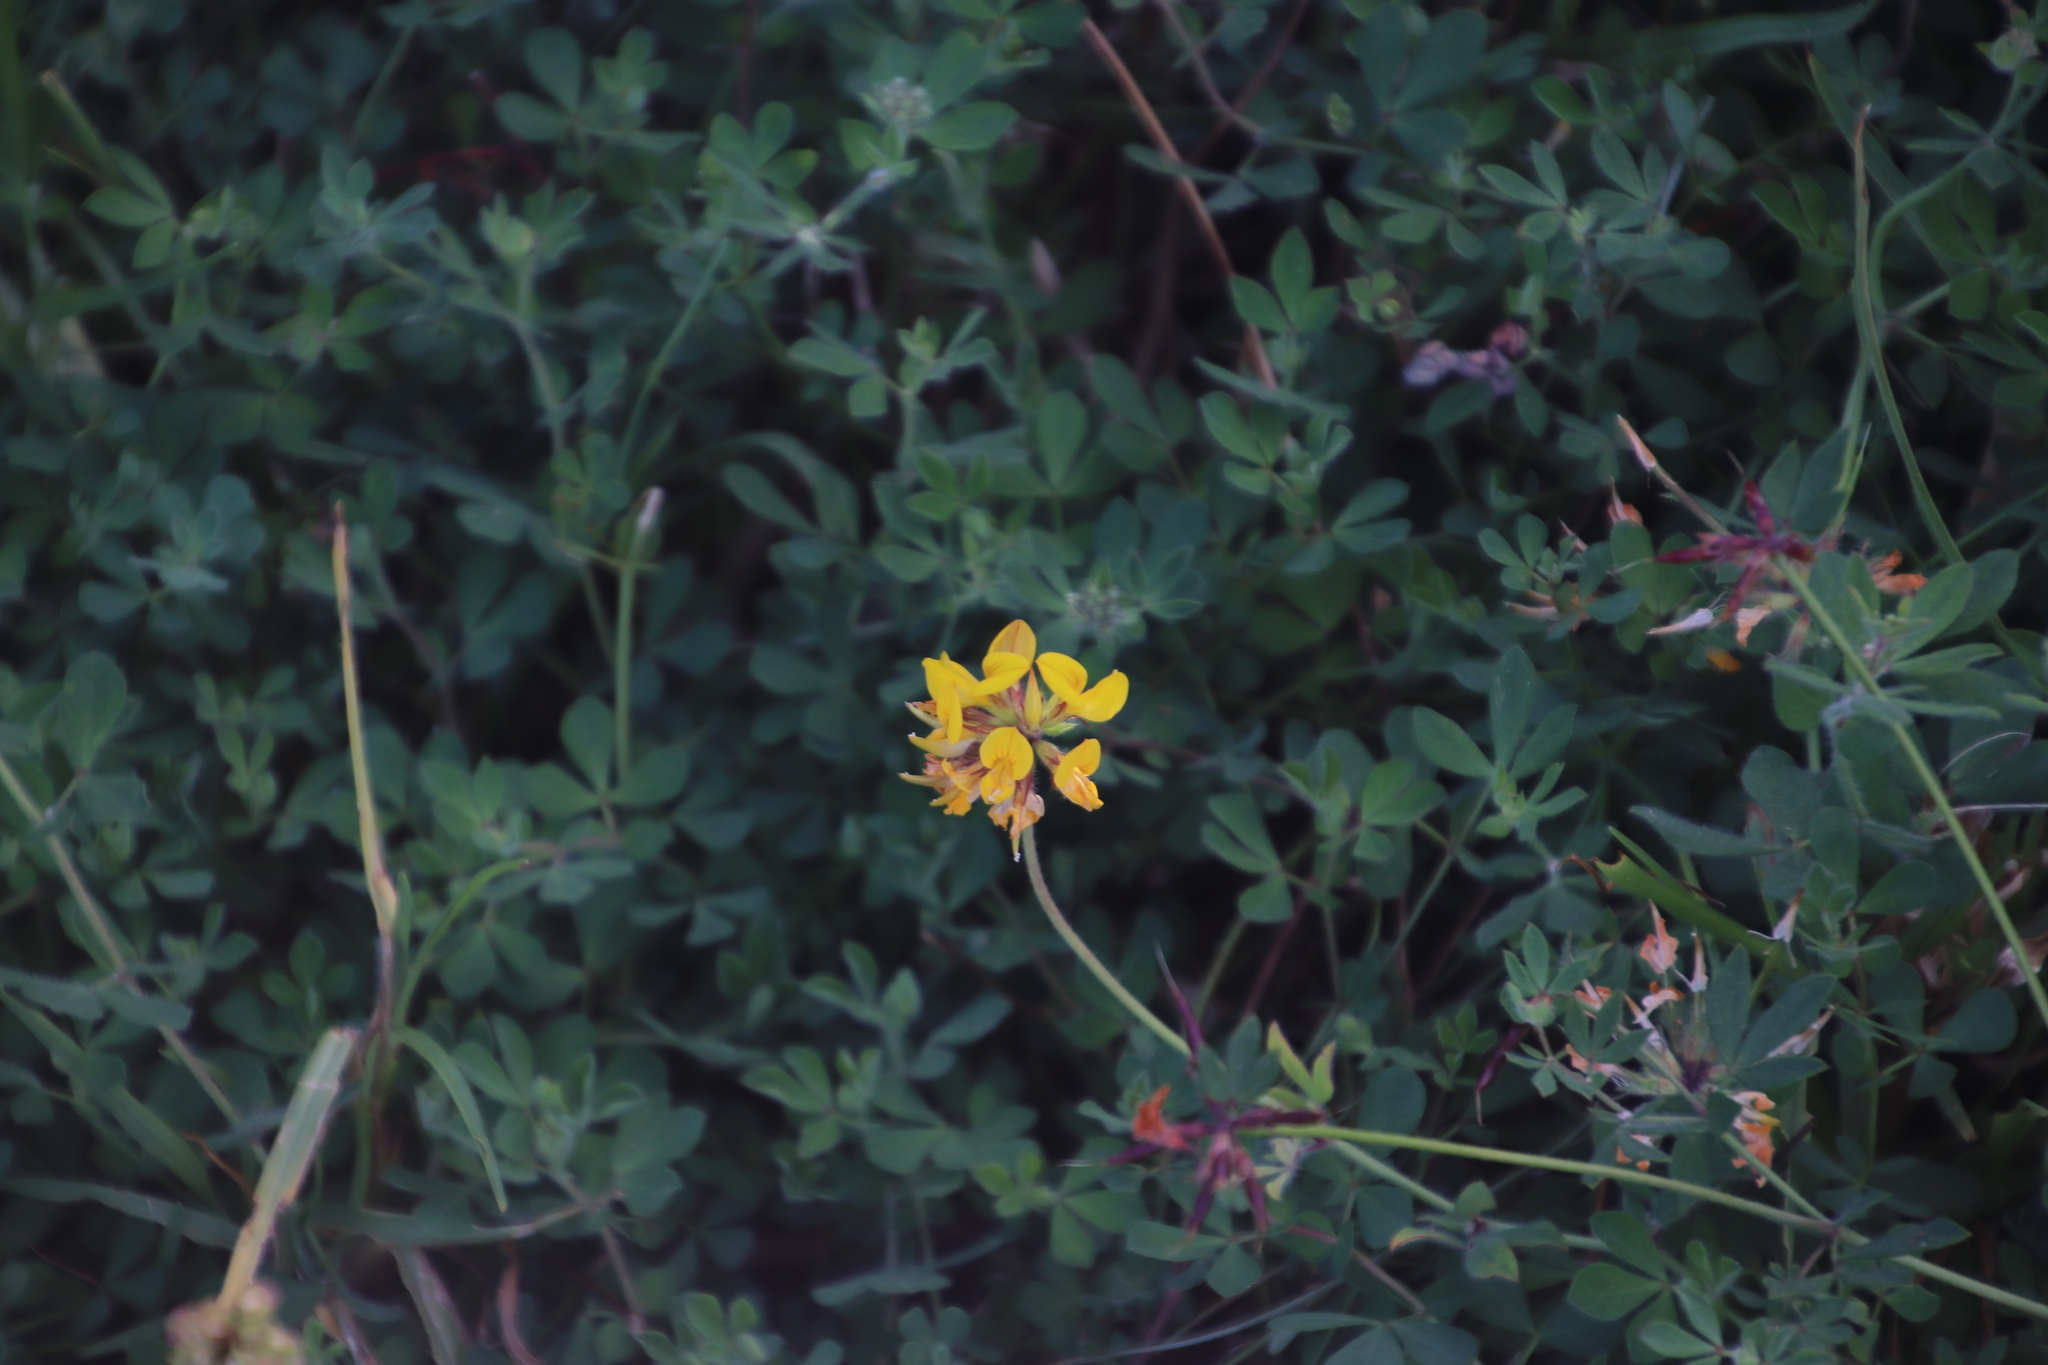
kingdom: Plantae
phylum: Tracheophyta
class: Magnoliopsida
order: Fabales
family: Fabaceae
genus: Lotus
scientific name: Lotus corniculatus
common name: Common bird's-foot-trefoil
